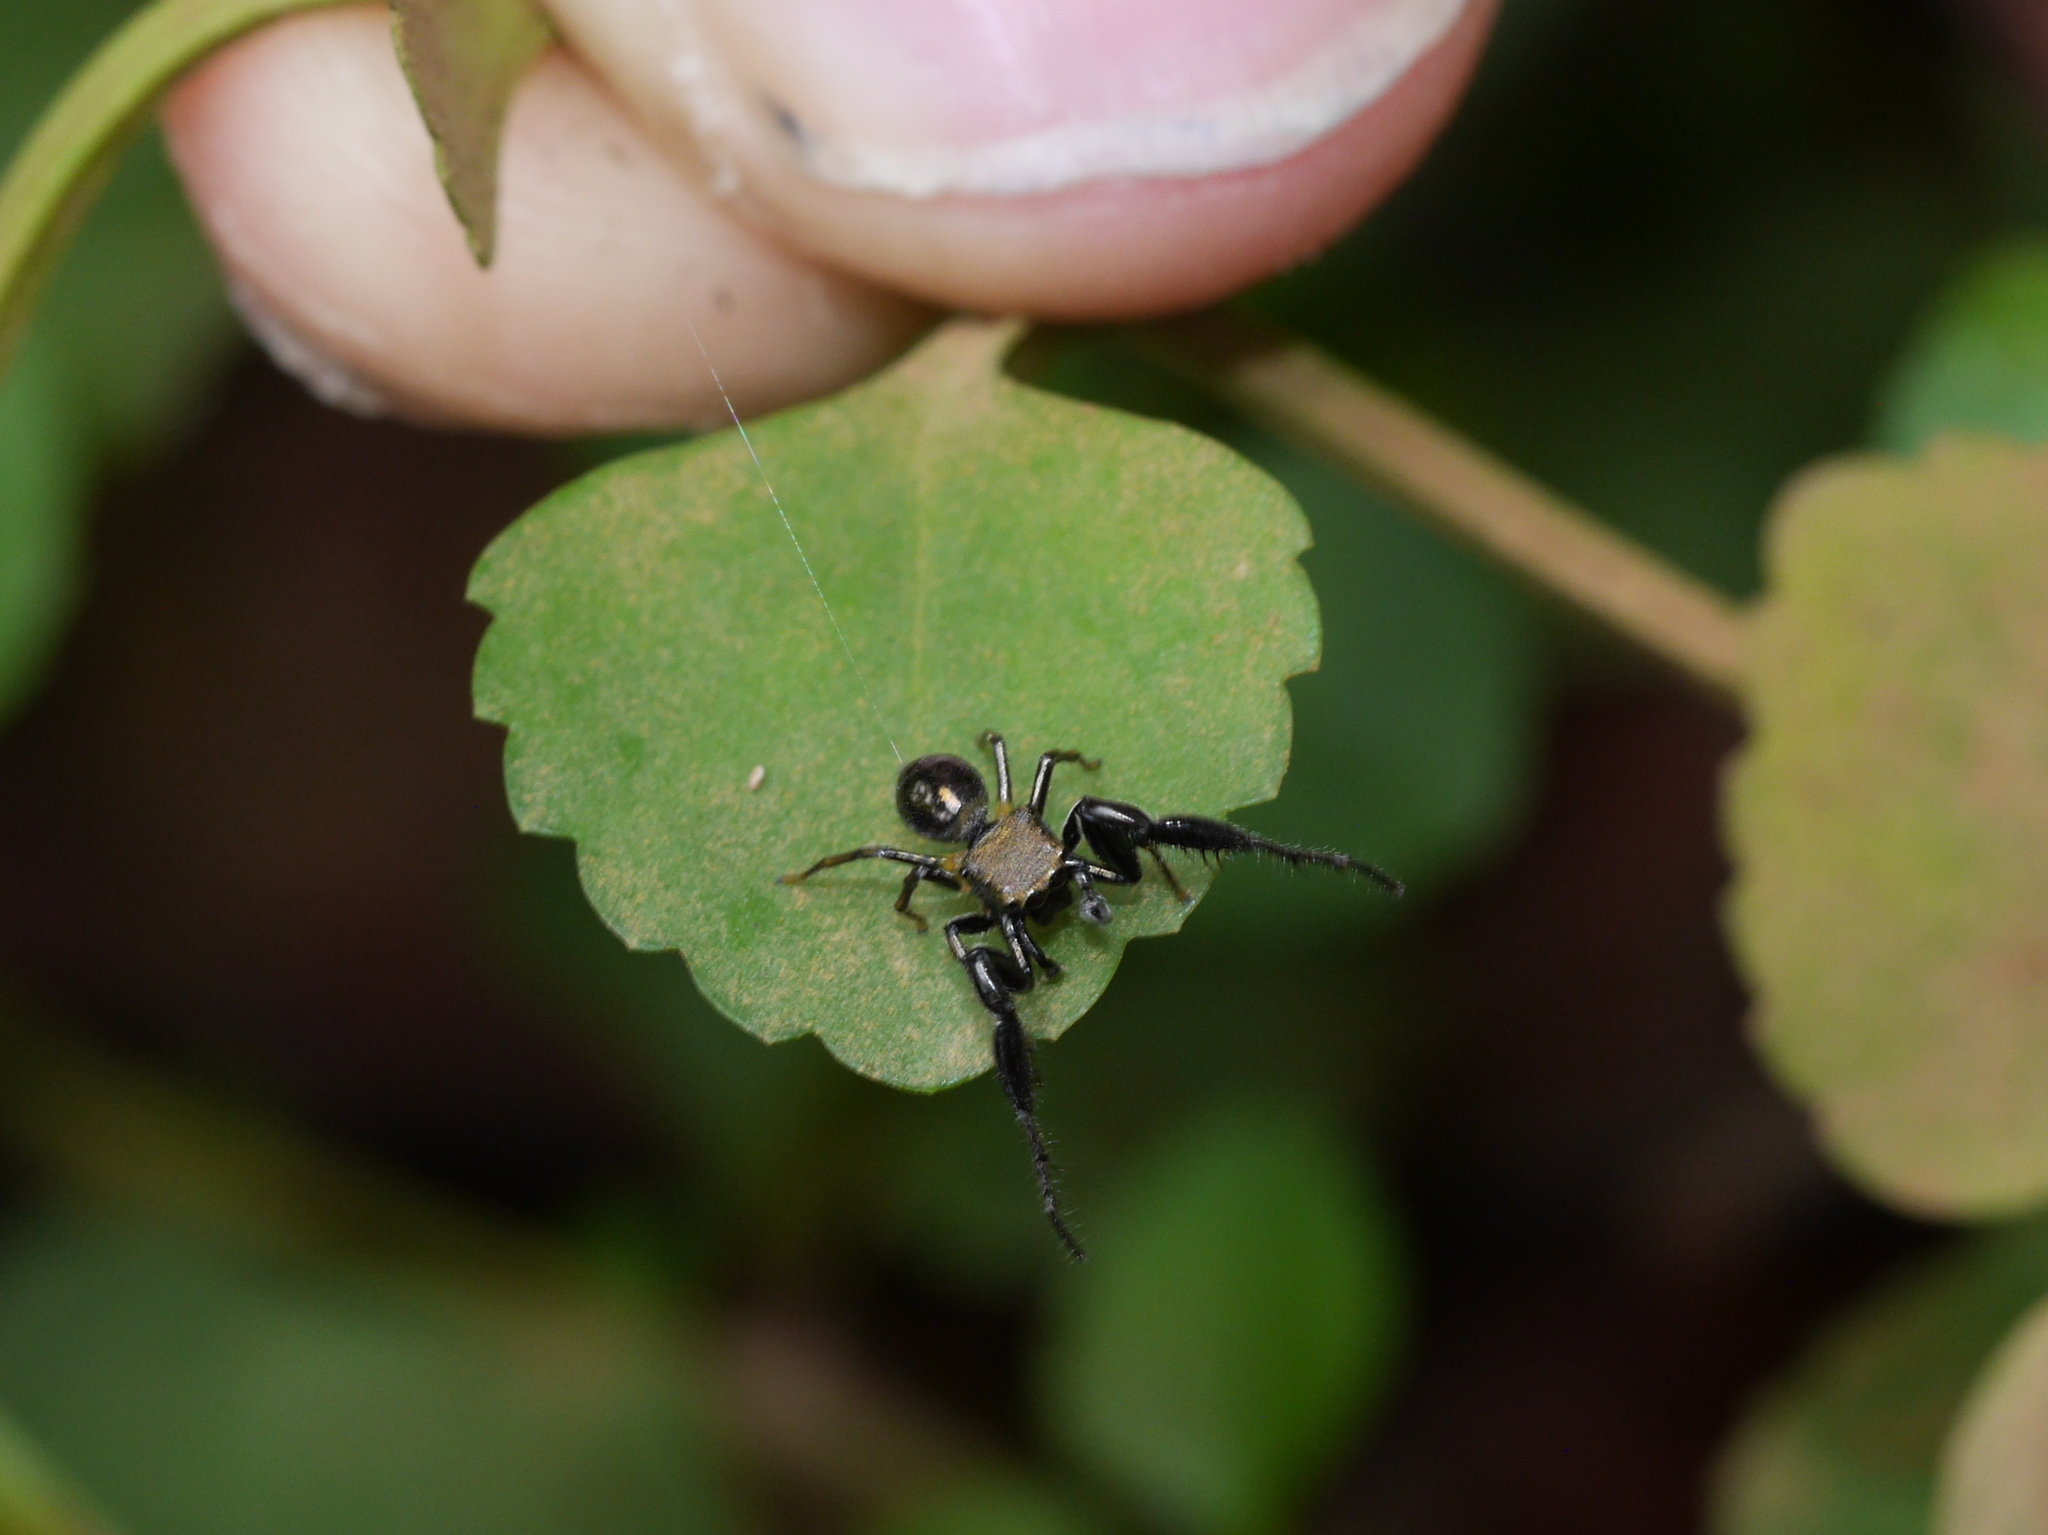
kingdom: Animalia
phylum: Arthropoda
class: Arachnida
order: Araneae
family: Salticidae
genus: Harmochirus
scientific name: Harmochirus brachiatus
